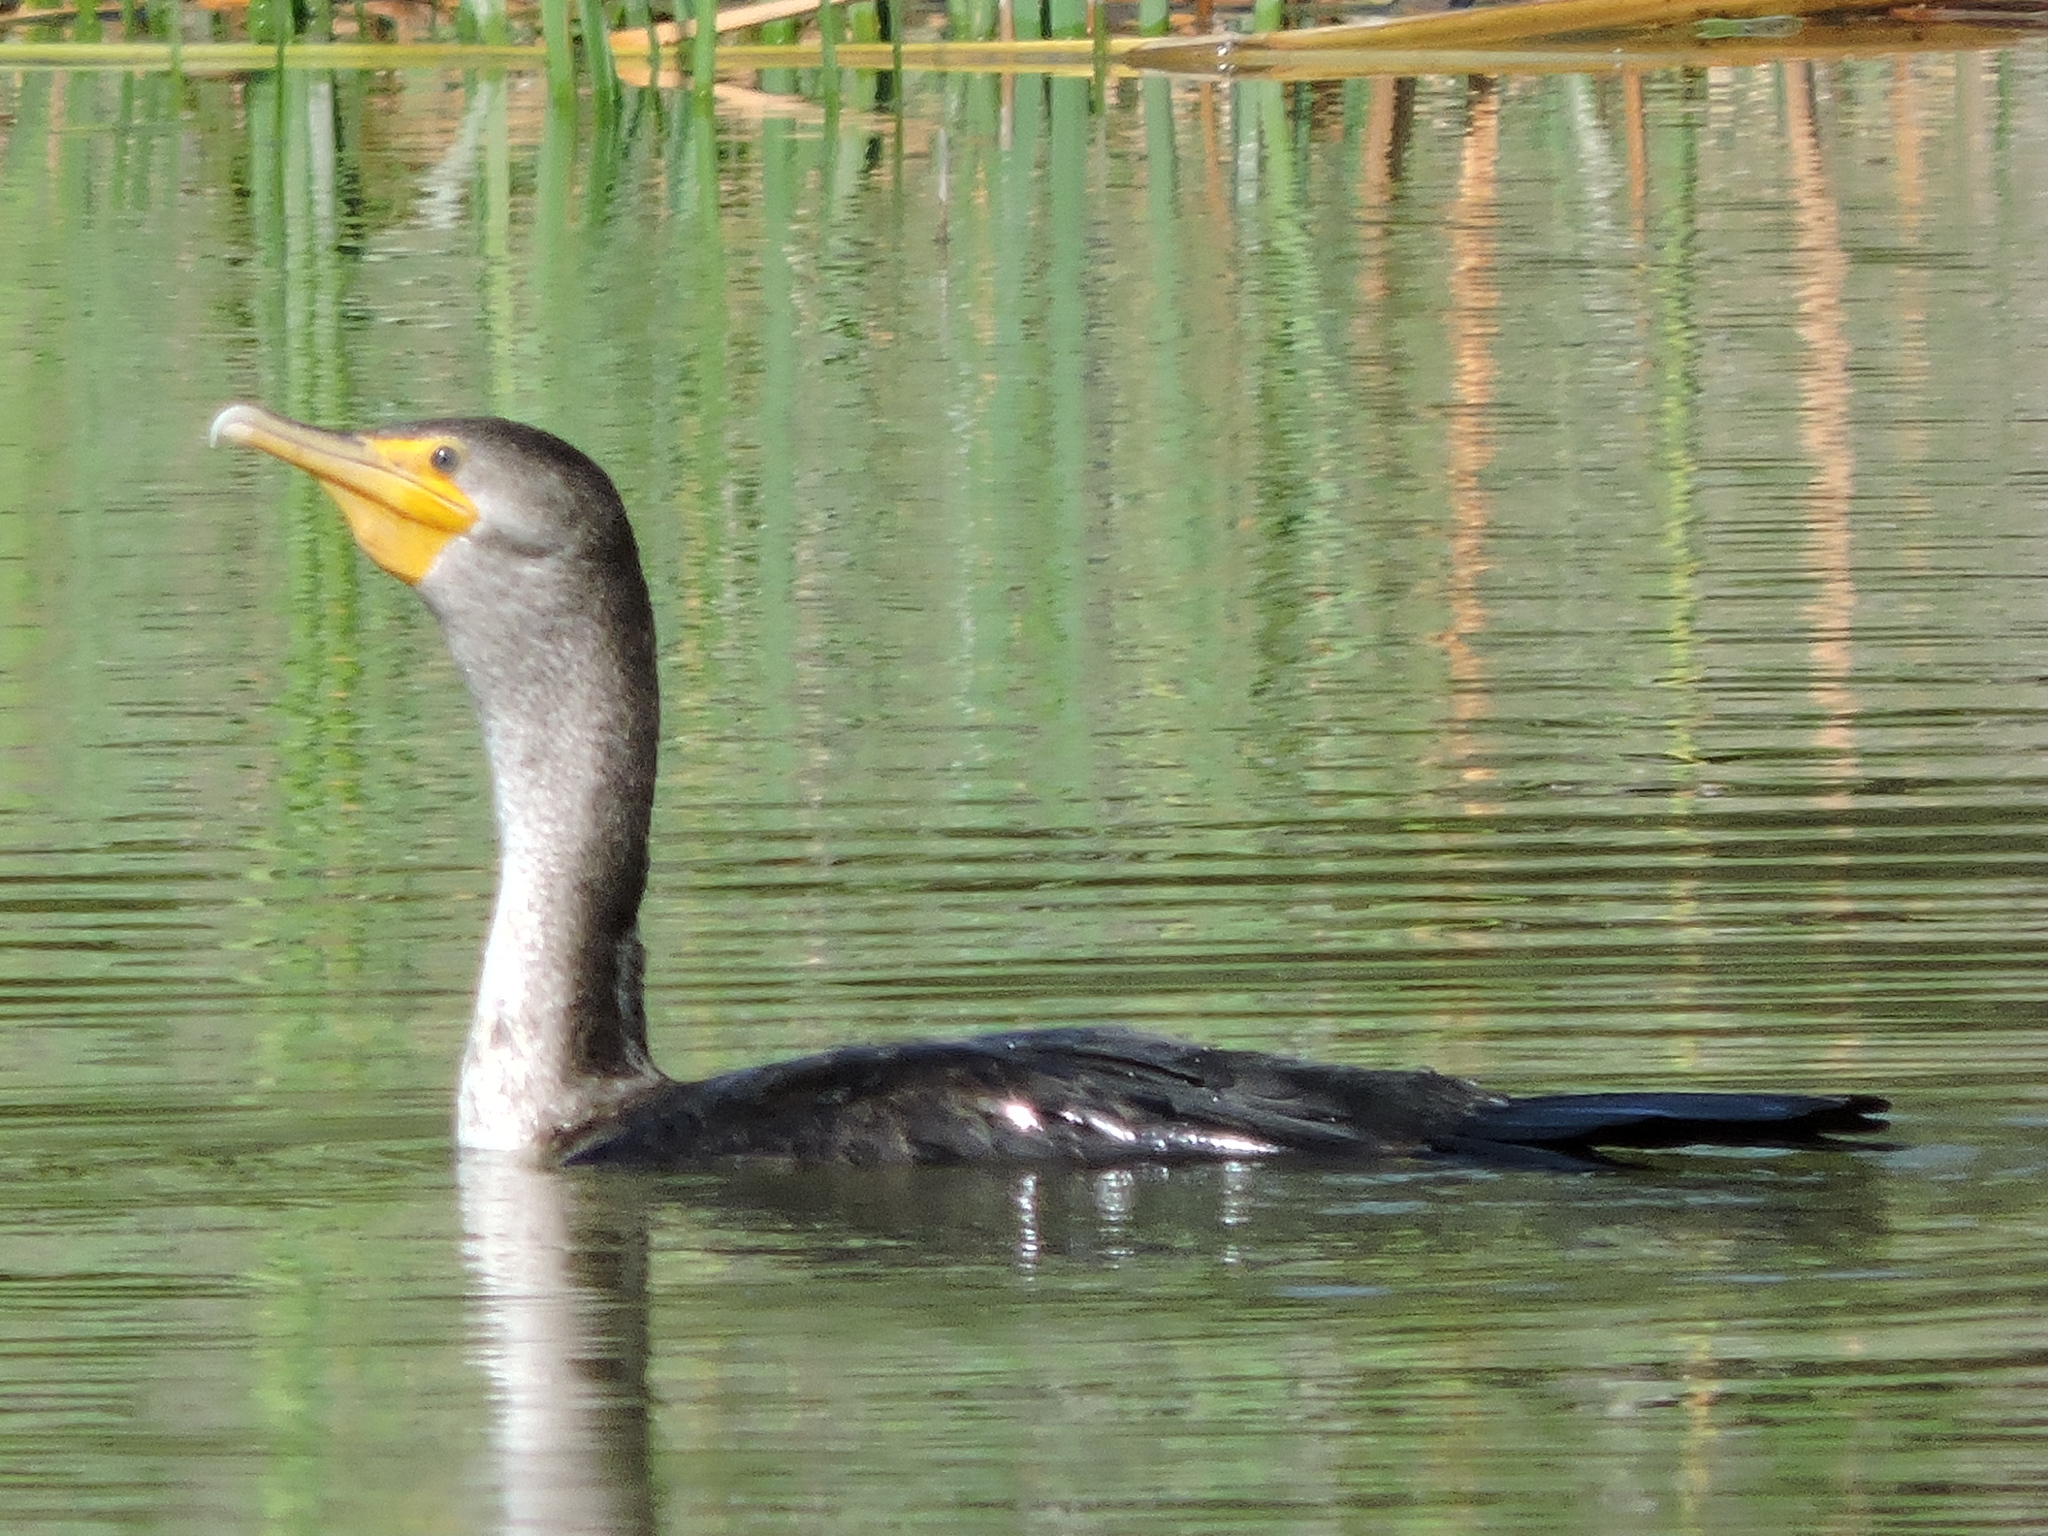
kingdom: Animalia
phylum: Chordata
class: Aves
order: Suliformes
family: Phalacrocoracidae
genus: Phalacrocorax
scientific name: Phalacrocorax auritus
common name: Double-crested cormorant
